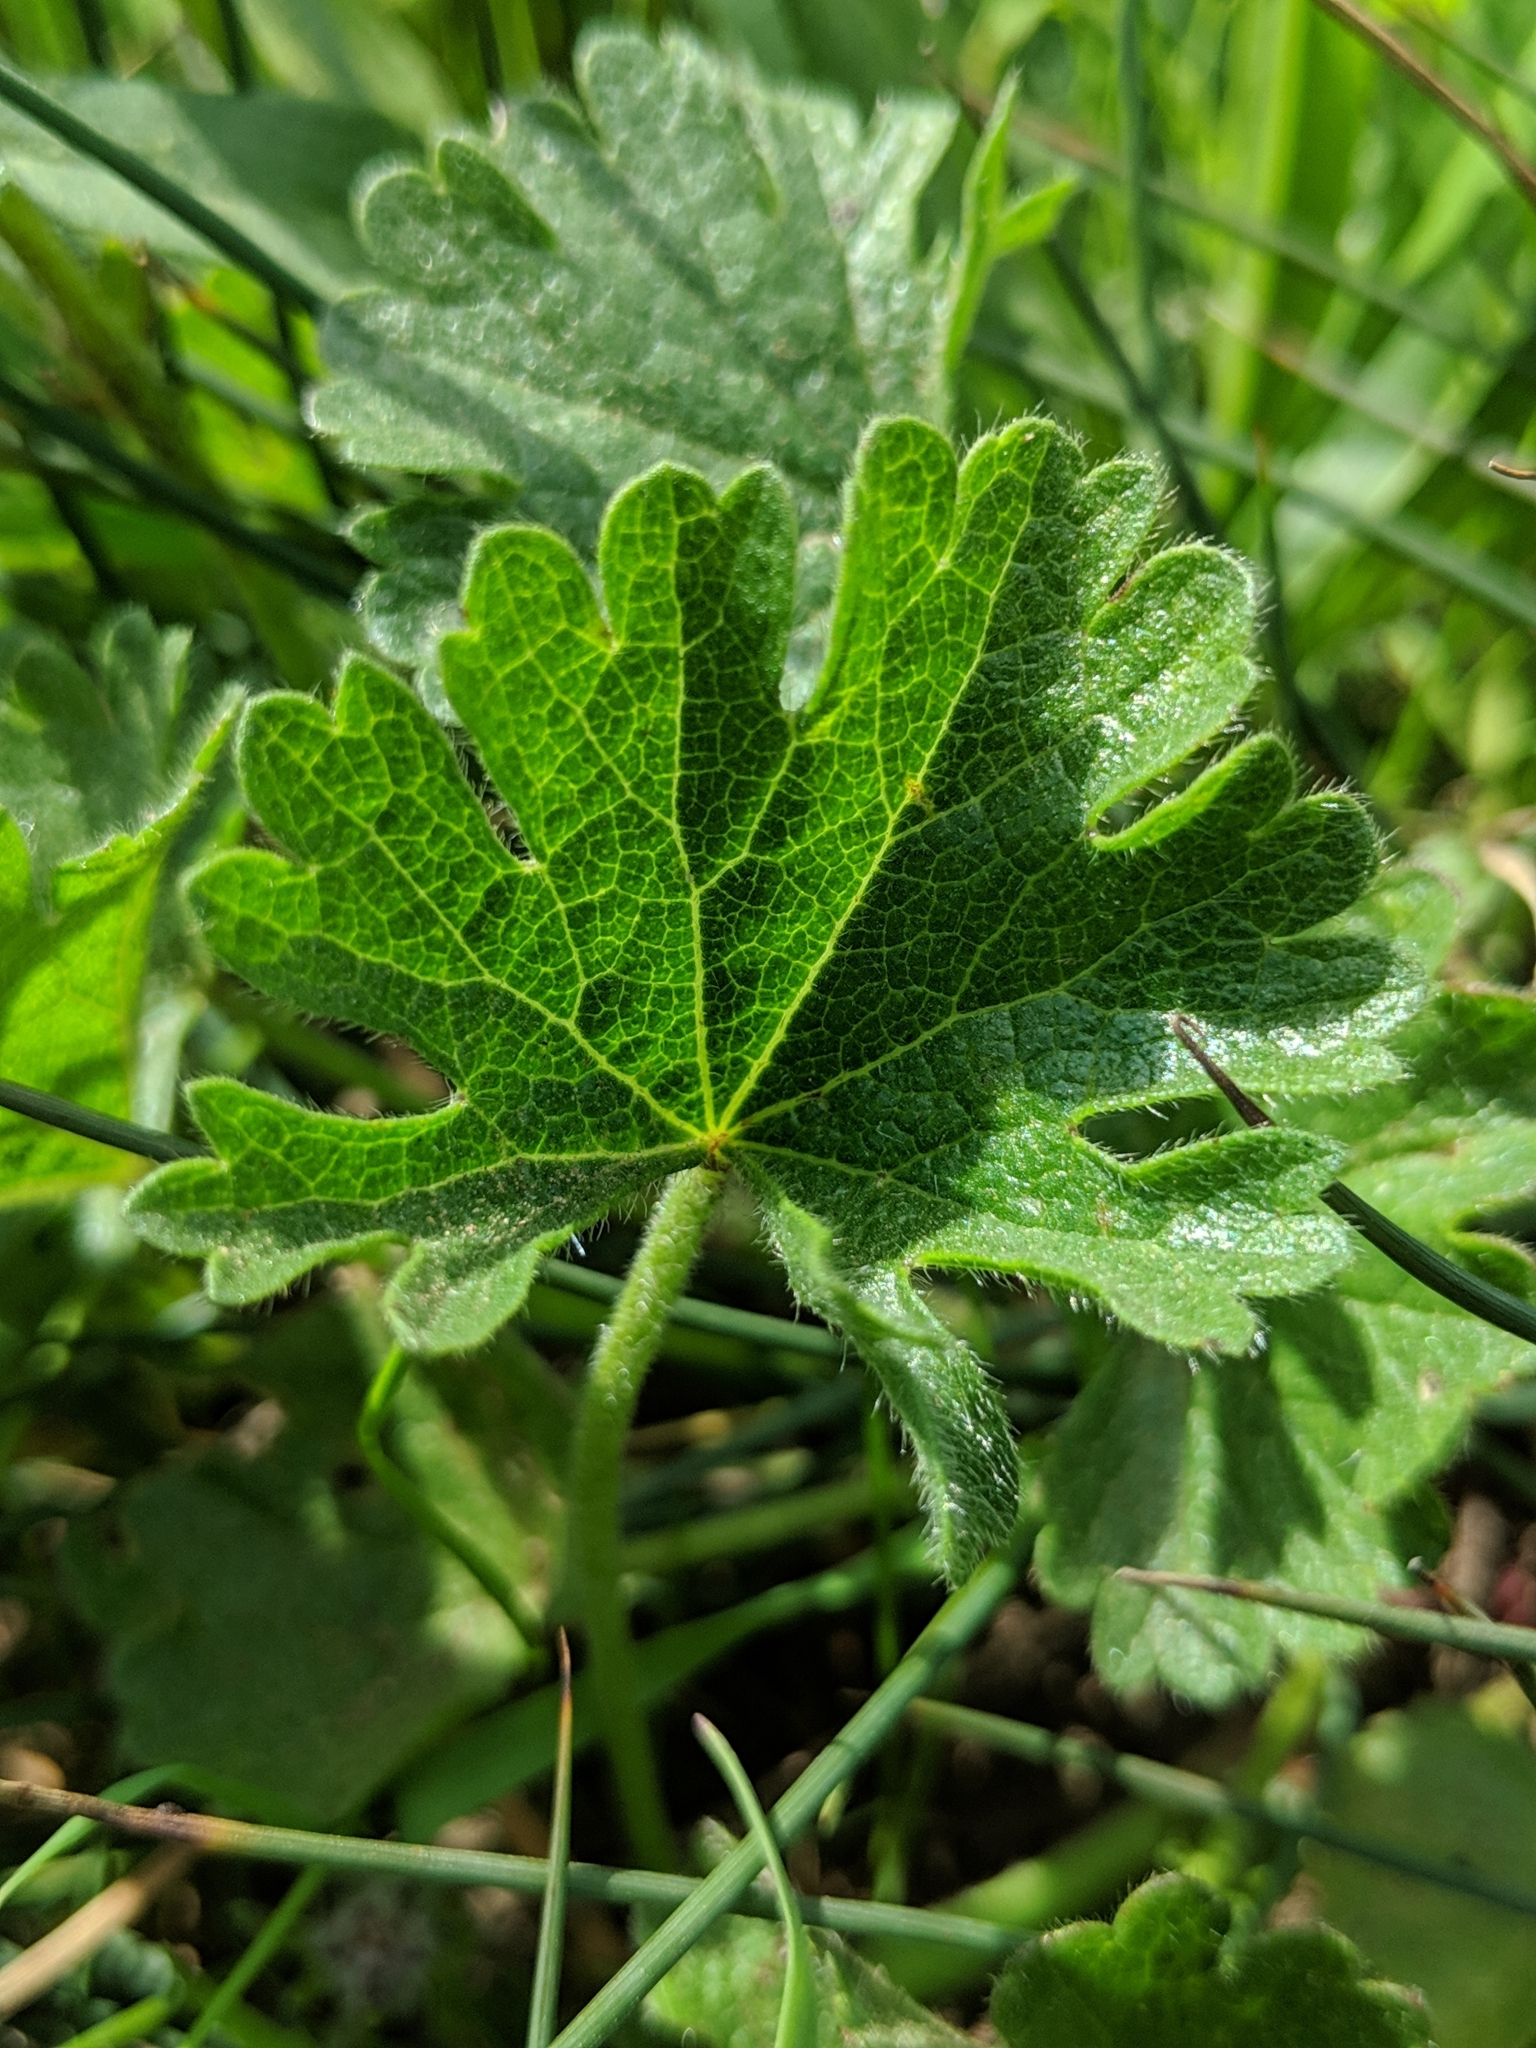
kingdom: Plantae
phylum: Tracheophyta
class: Magnoliopsida
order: Malvales
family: Malvaceae
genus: Sidalcea
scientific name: Sidalcea malviflora
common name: Greek mallow
